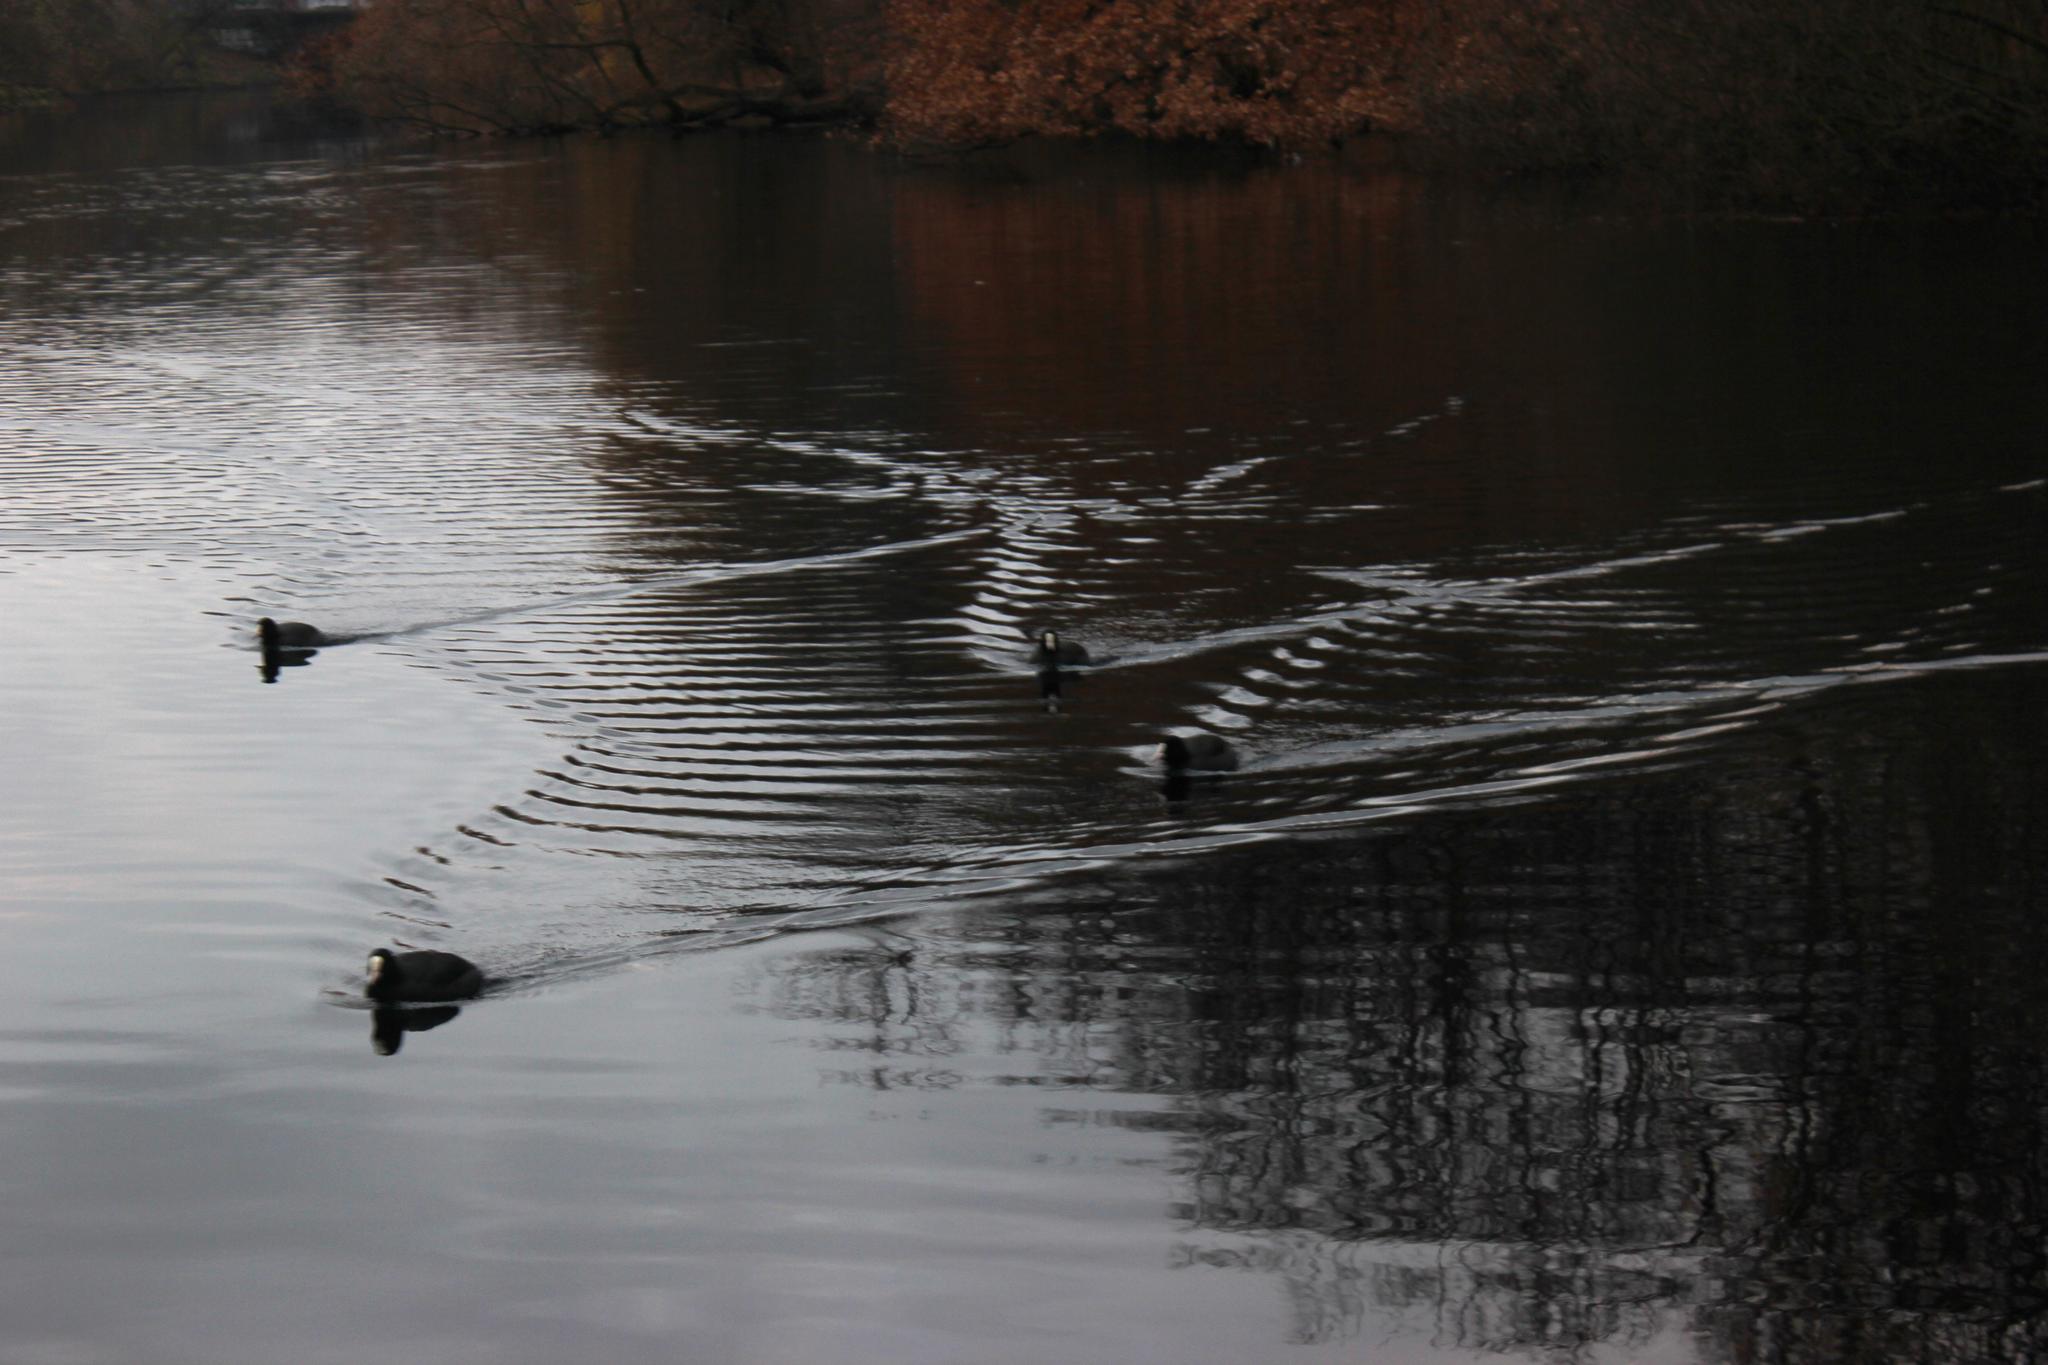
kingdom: Animalia
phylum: Chordata
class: Aves
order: Gruiformes
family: Rallidae
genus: Fulica
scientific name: Fulica atra
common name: Eurasian coot
